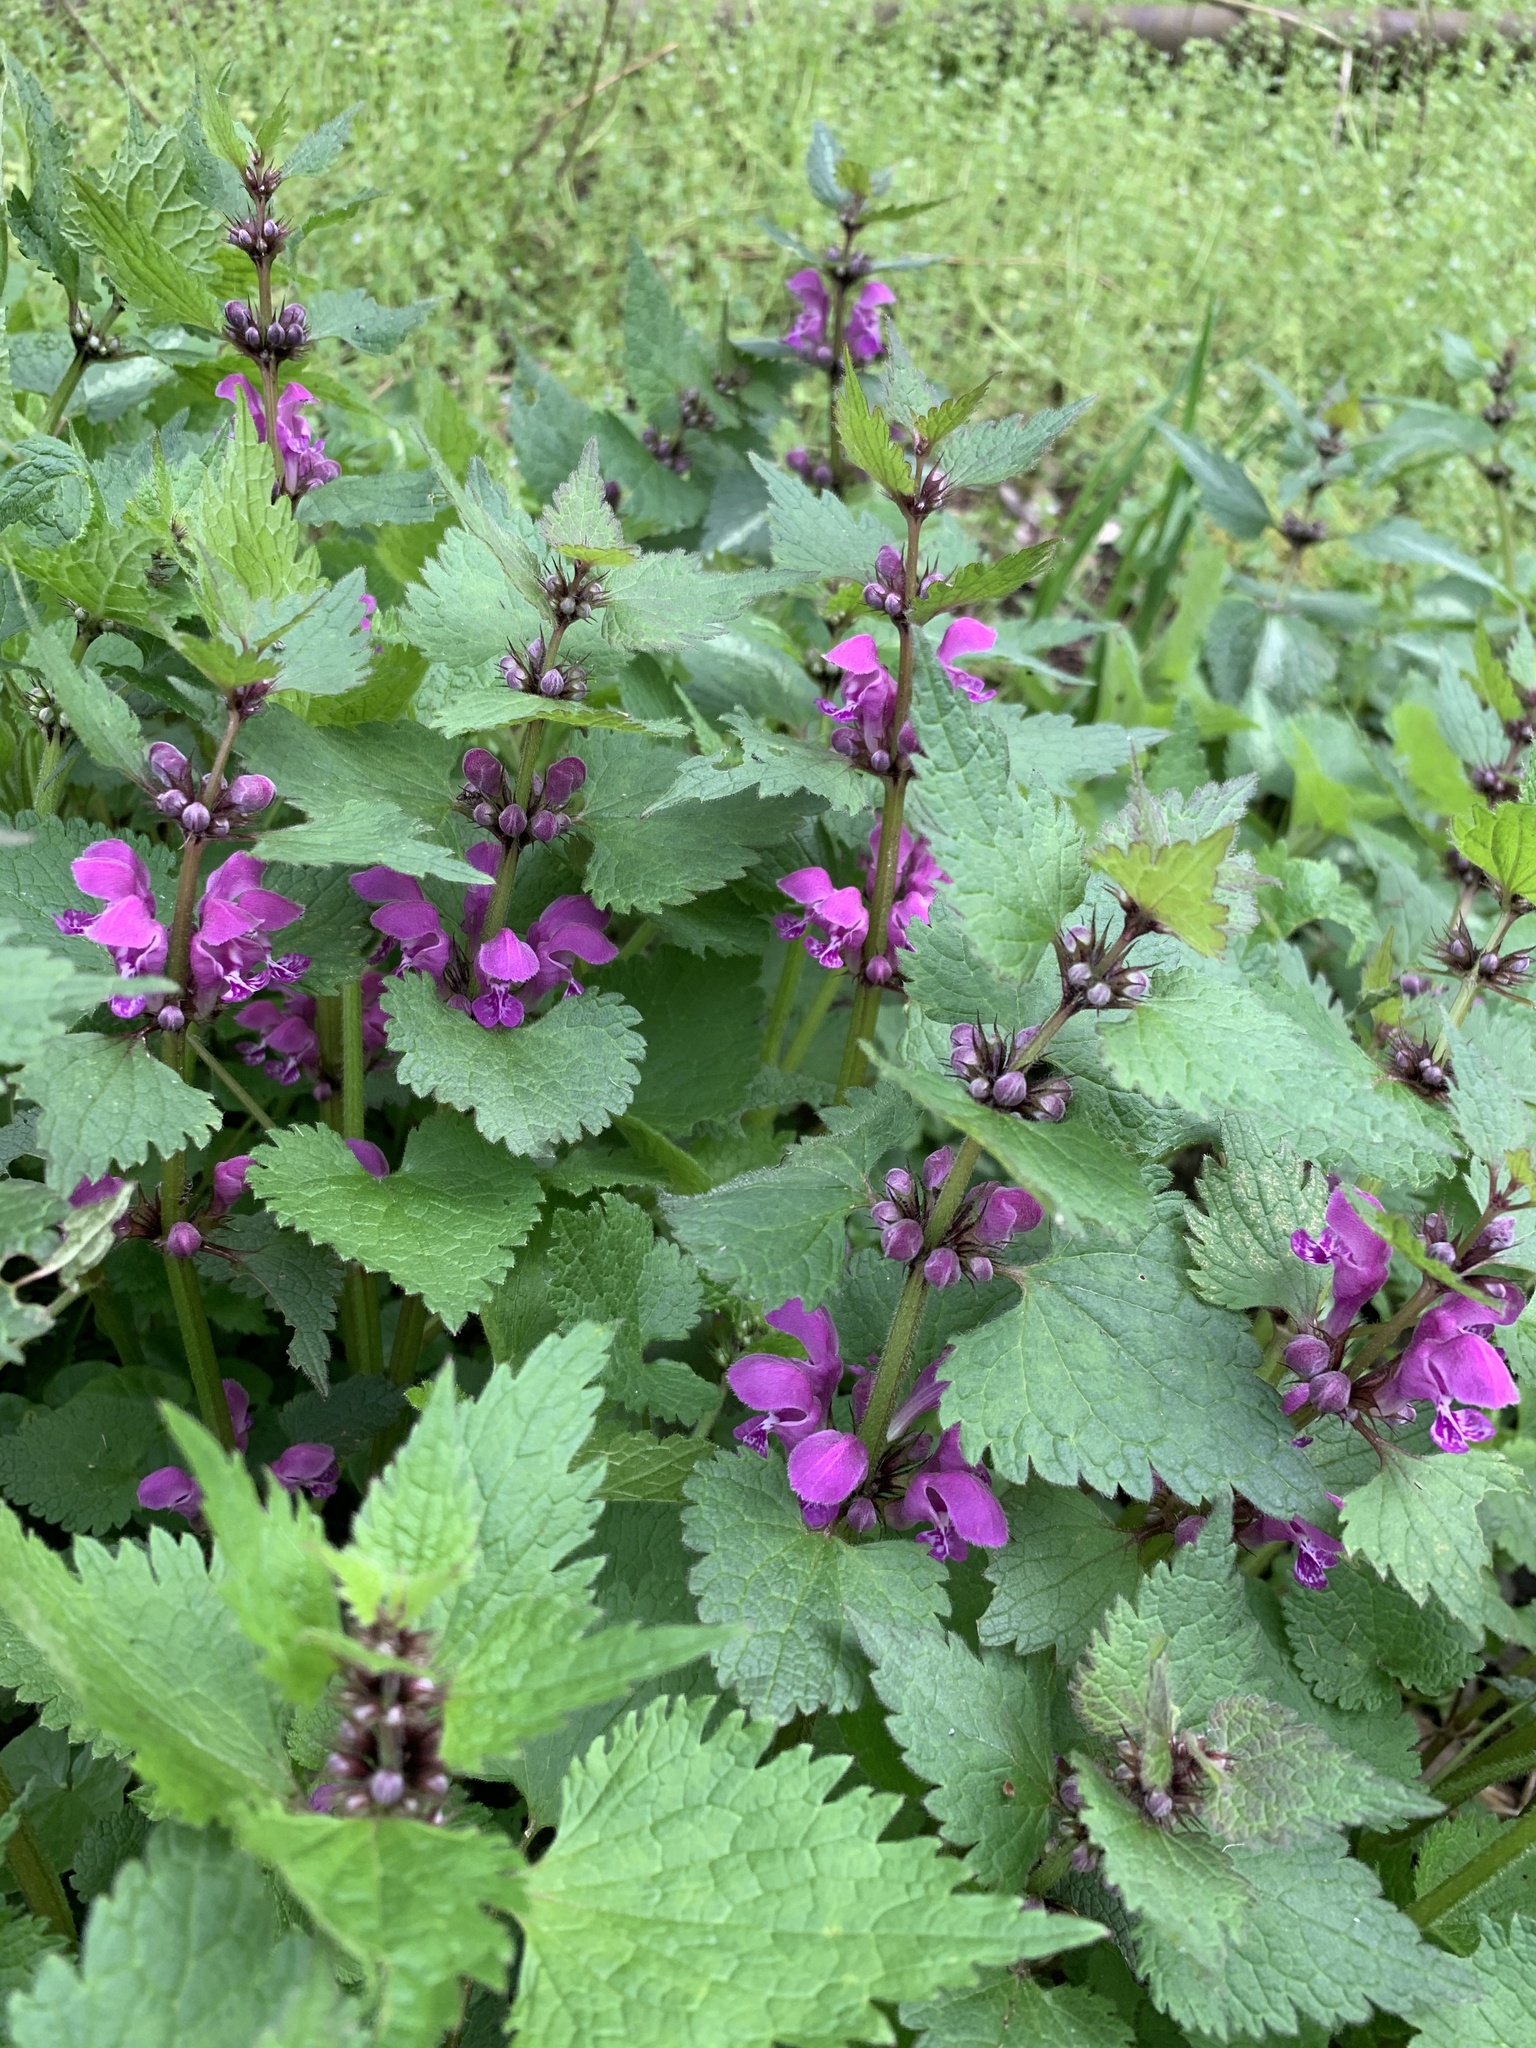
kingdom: Plantae
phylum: Tracheophyta
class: Magnoliopsida
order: Lamiales
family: Lamiaceae
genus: Lamium
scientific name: Lamium maculatum
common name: Spotted dead-nettle
